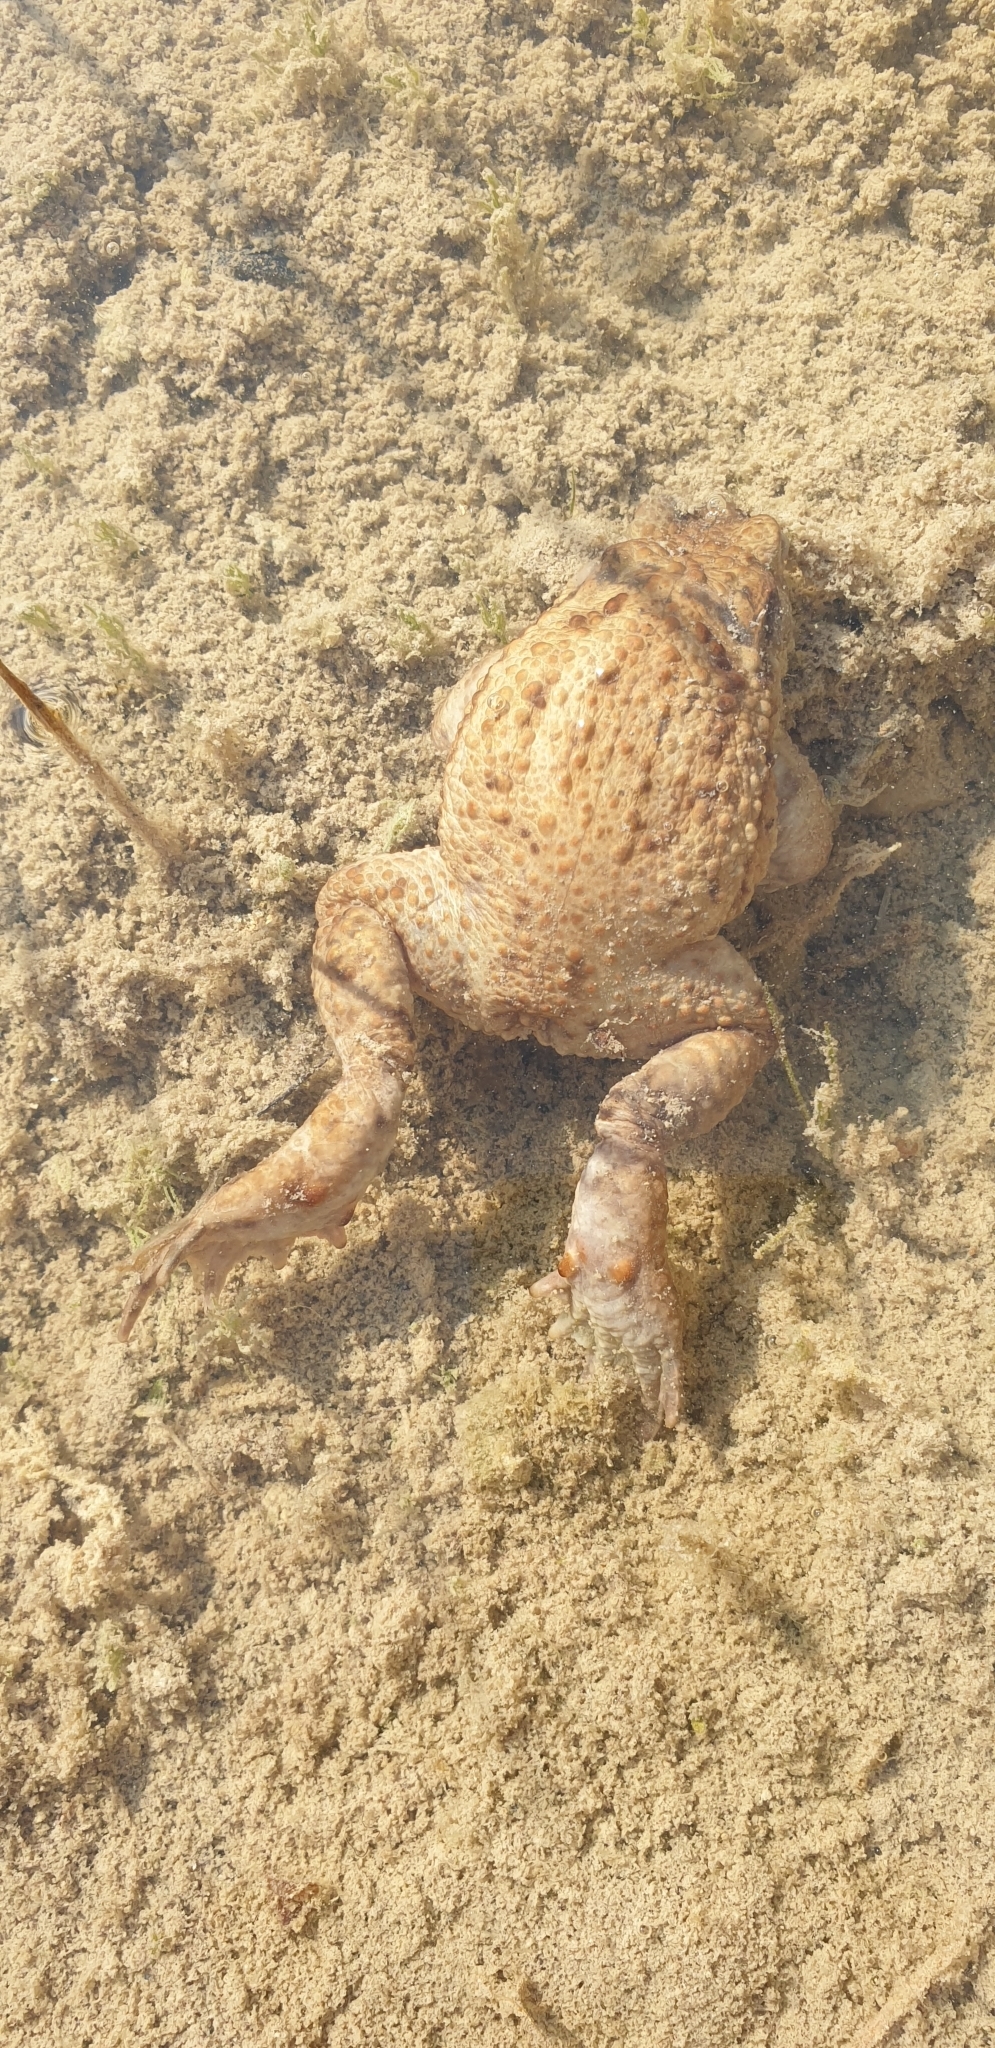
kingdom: Animalia
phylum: Chordata
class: Amphibia
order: Anura
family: Bufonidae
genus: Bufo
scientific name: Bufo bufo
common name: Common toad
